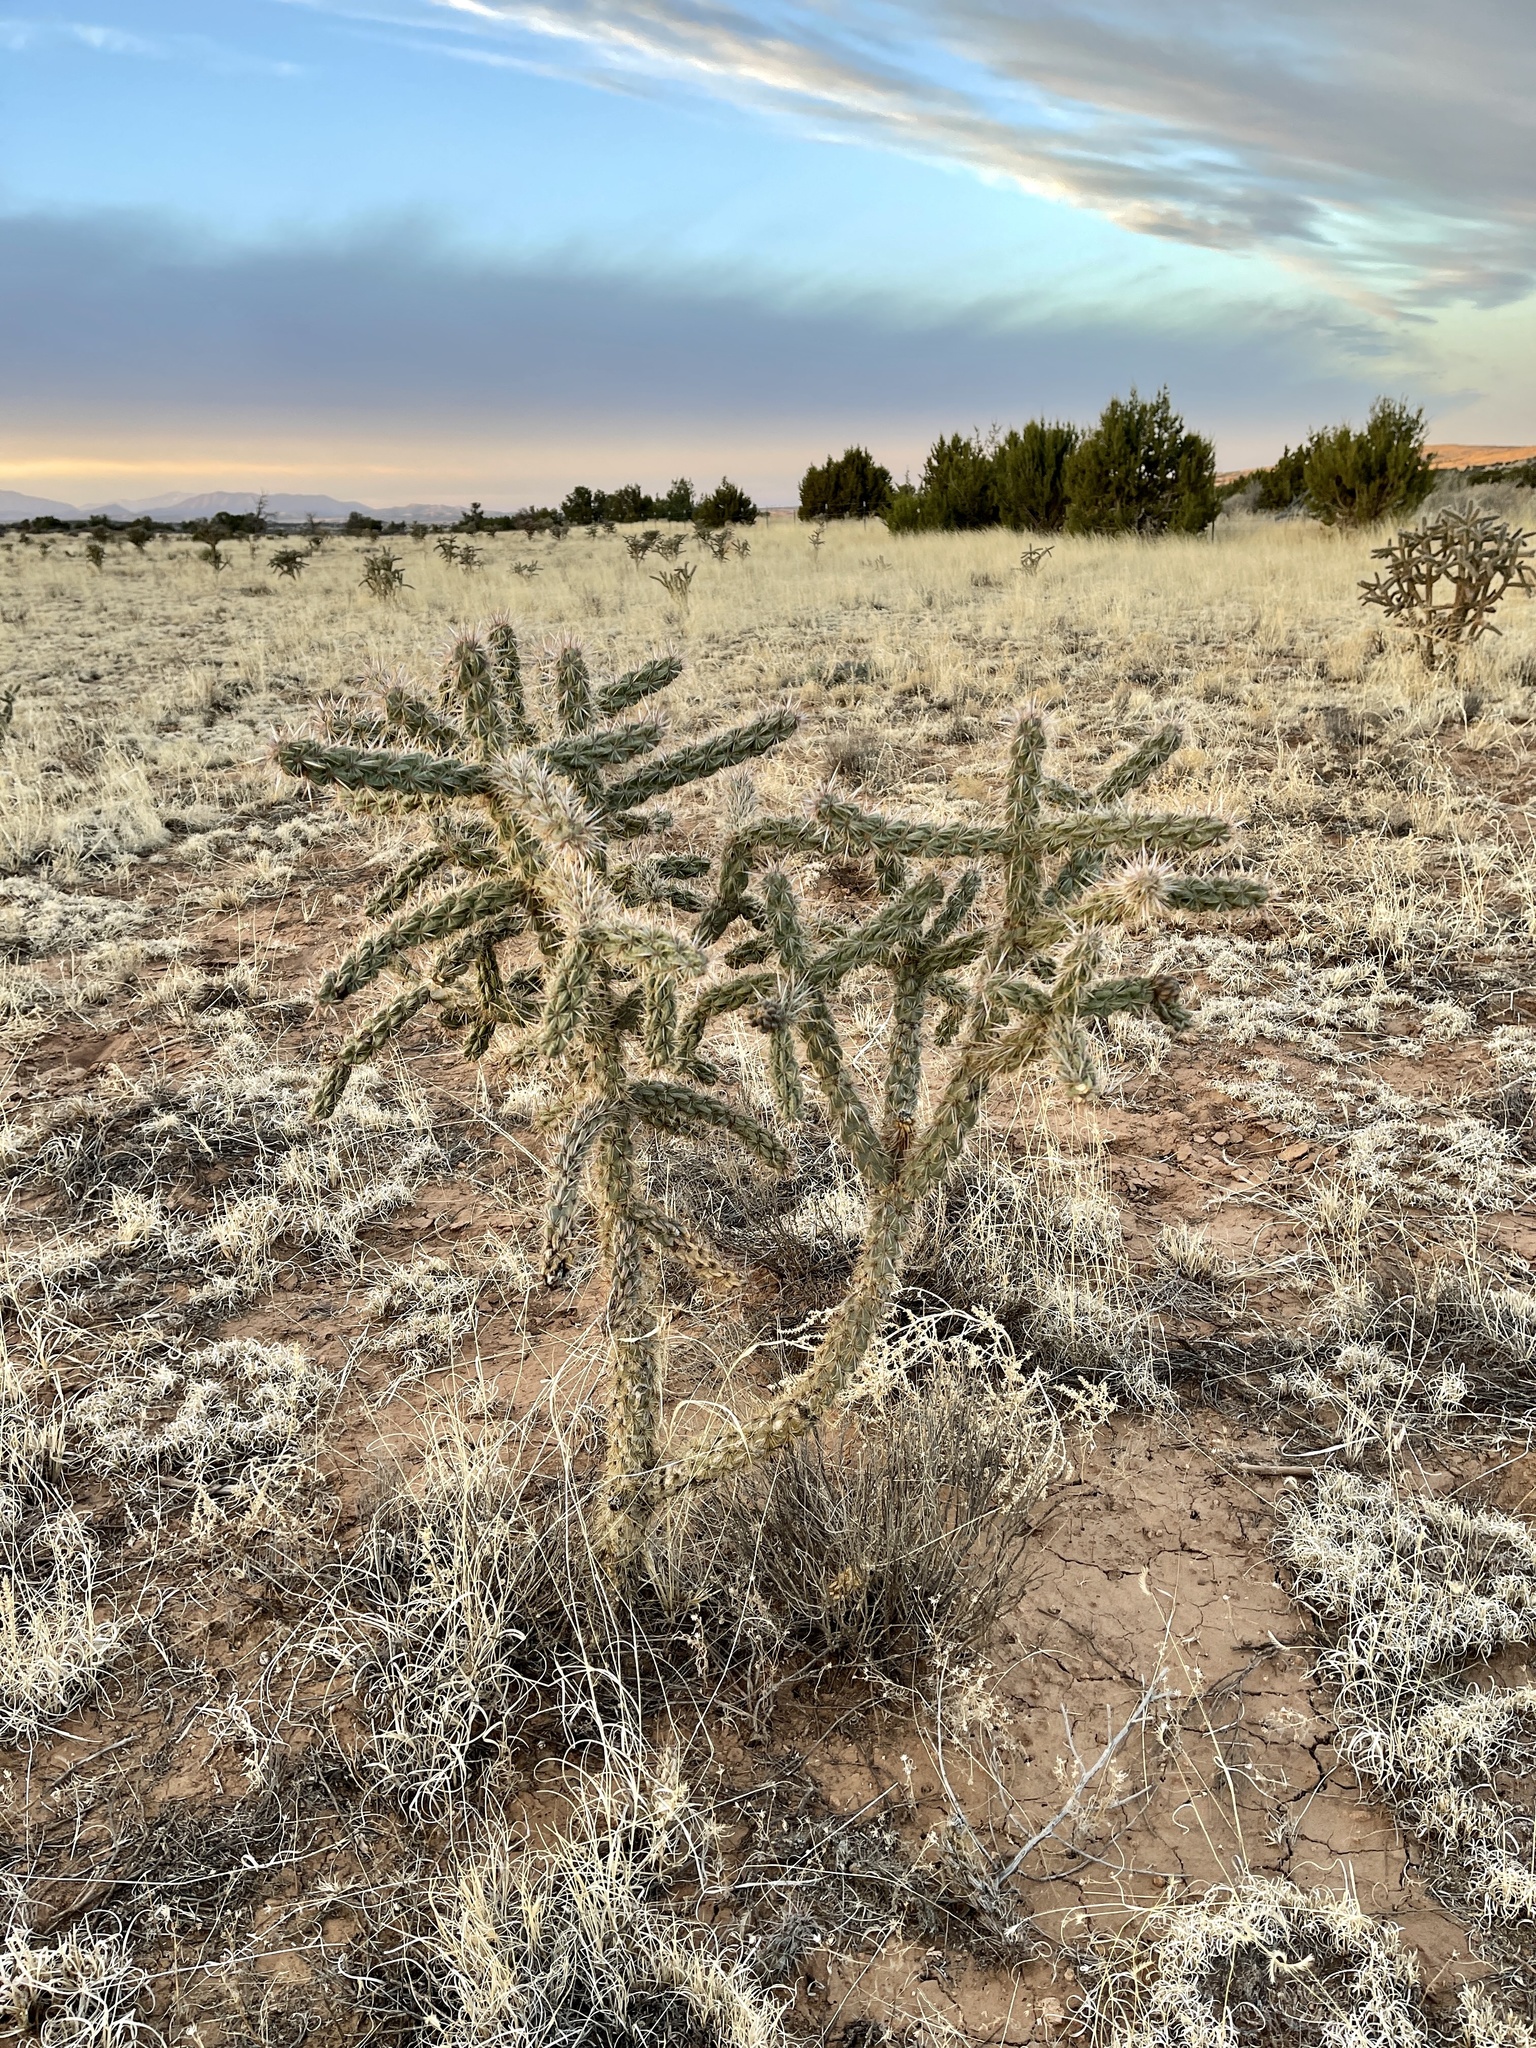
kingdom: Plantae
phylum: Tracheophyta
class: Magnoliopsida
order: Caryophyllales
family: Cactaceae
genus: Cylindropuntia
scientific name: Cylindropuntia imbricata
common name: Candelabrum cactus
